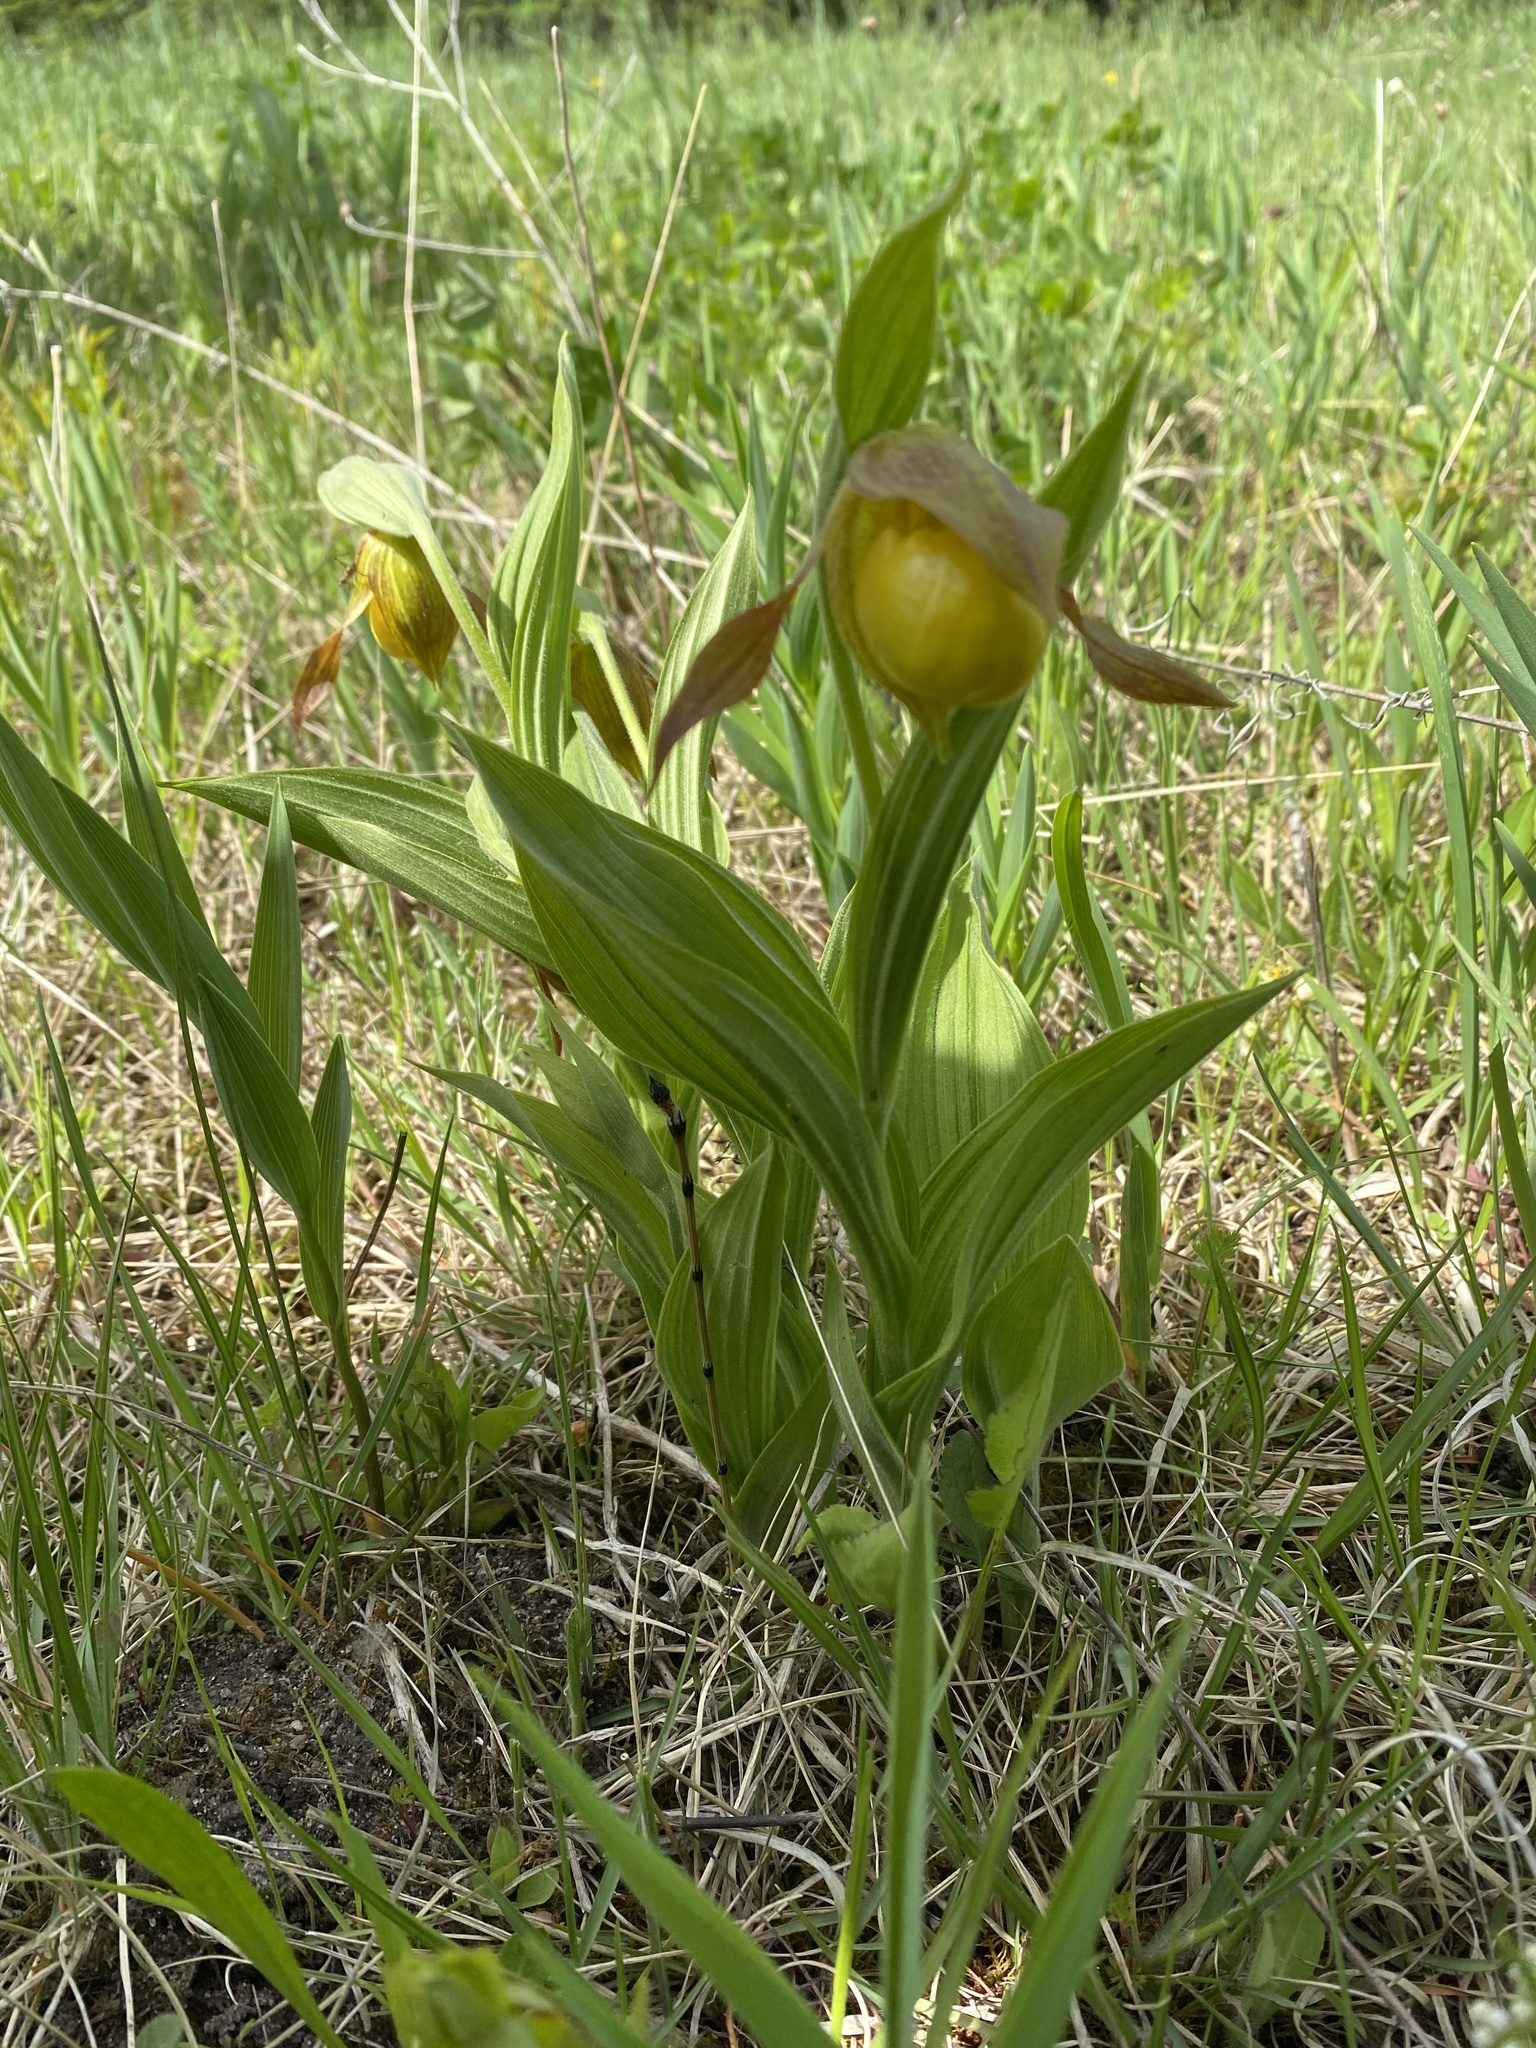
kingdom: Plantae
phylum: Tracheophyta
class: Liliopsida
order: Asparagales
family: Orchidaceae
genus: Cypripedium
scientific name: Cypripedium parviflorum
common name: American yellow lady's-slipper
